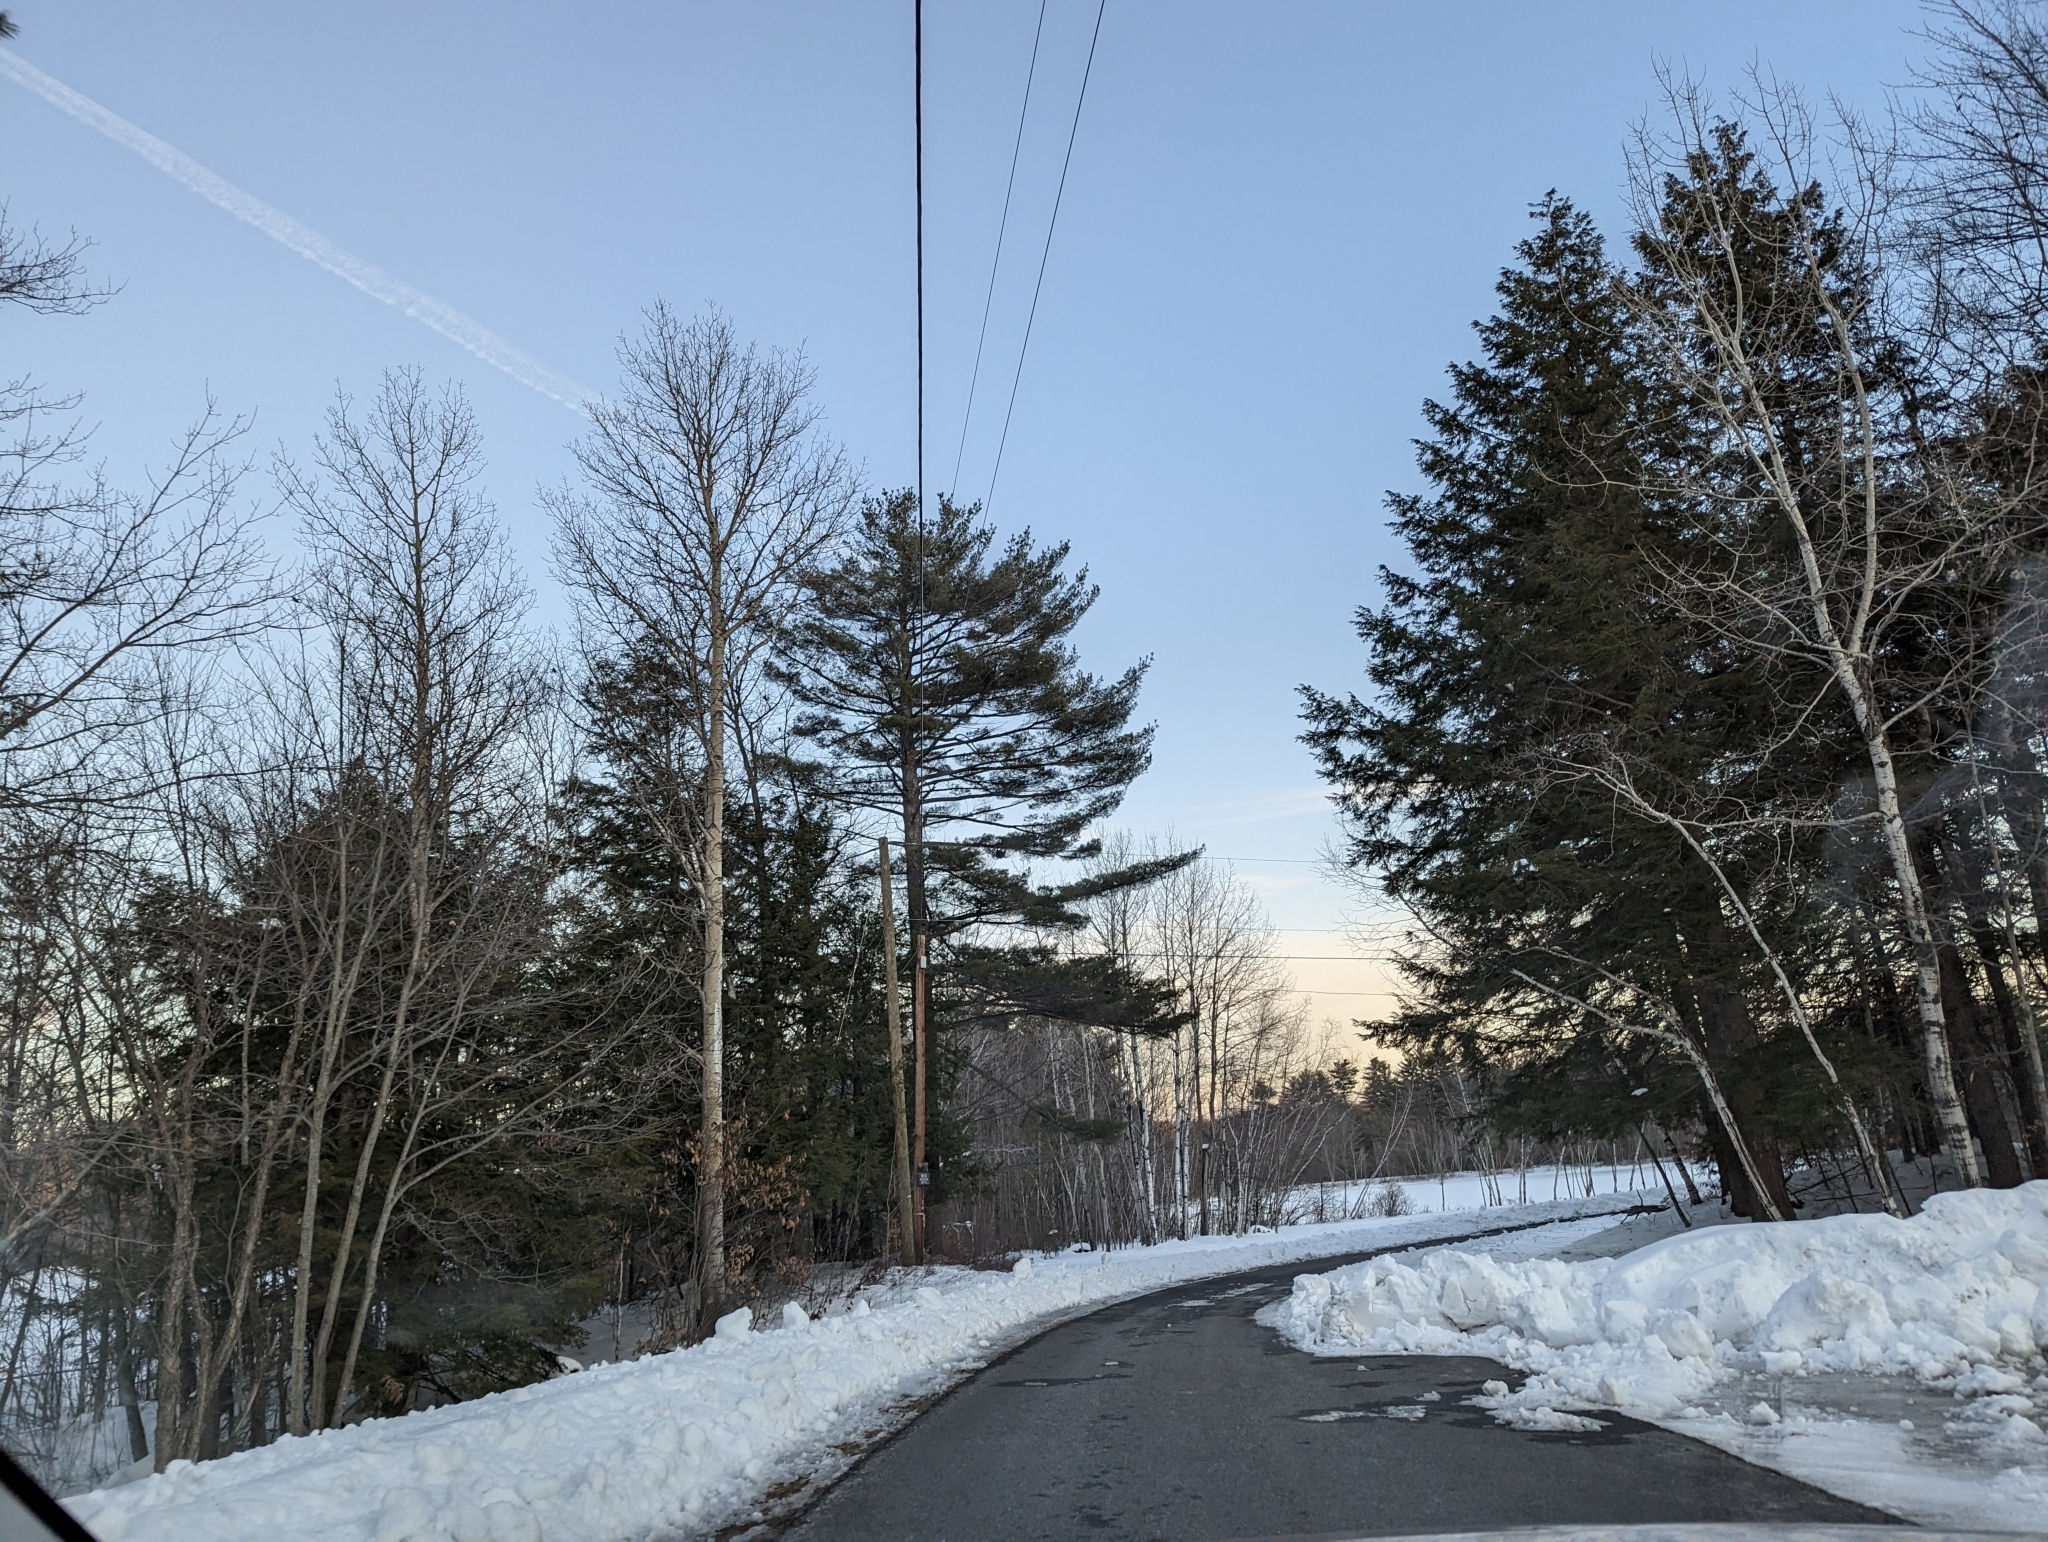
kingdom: Plantae
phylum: Tracheophyta
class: Pinopsida
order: Pinales
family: Pinaceae
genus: Pinus
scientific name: Pinus strobus
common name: Weymouth pine
